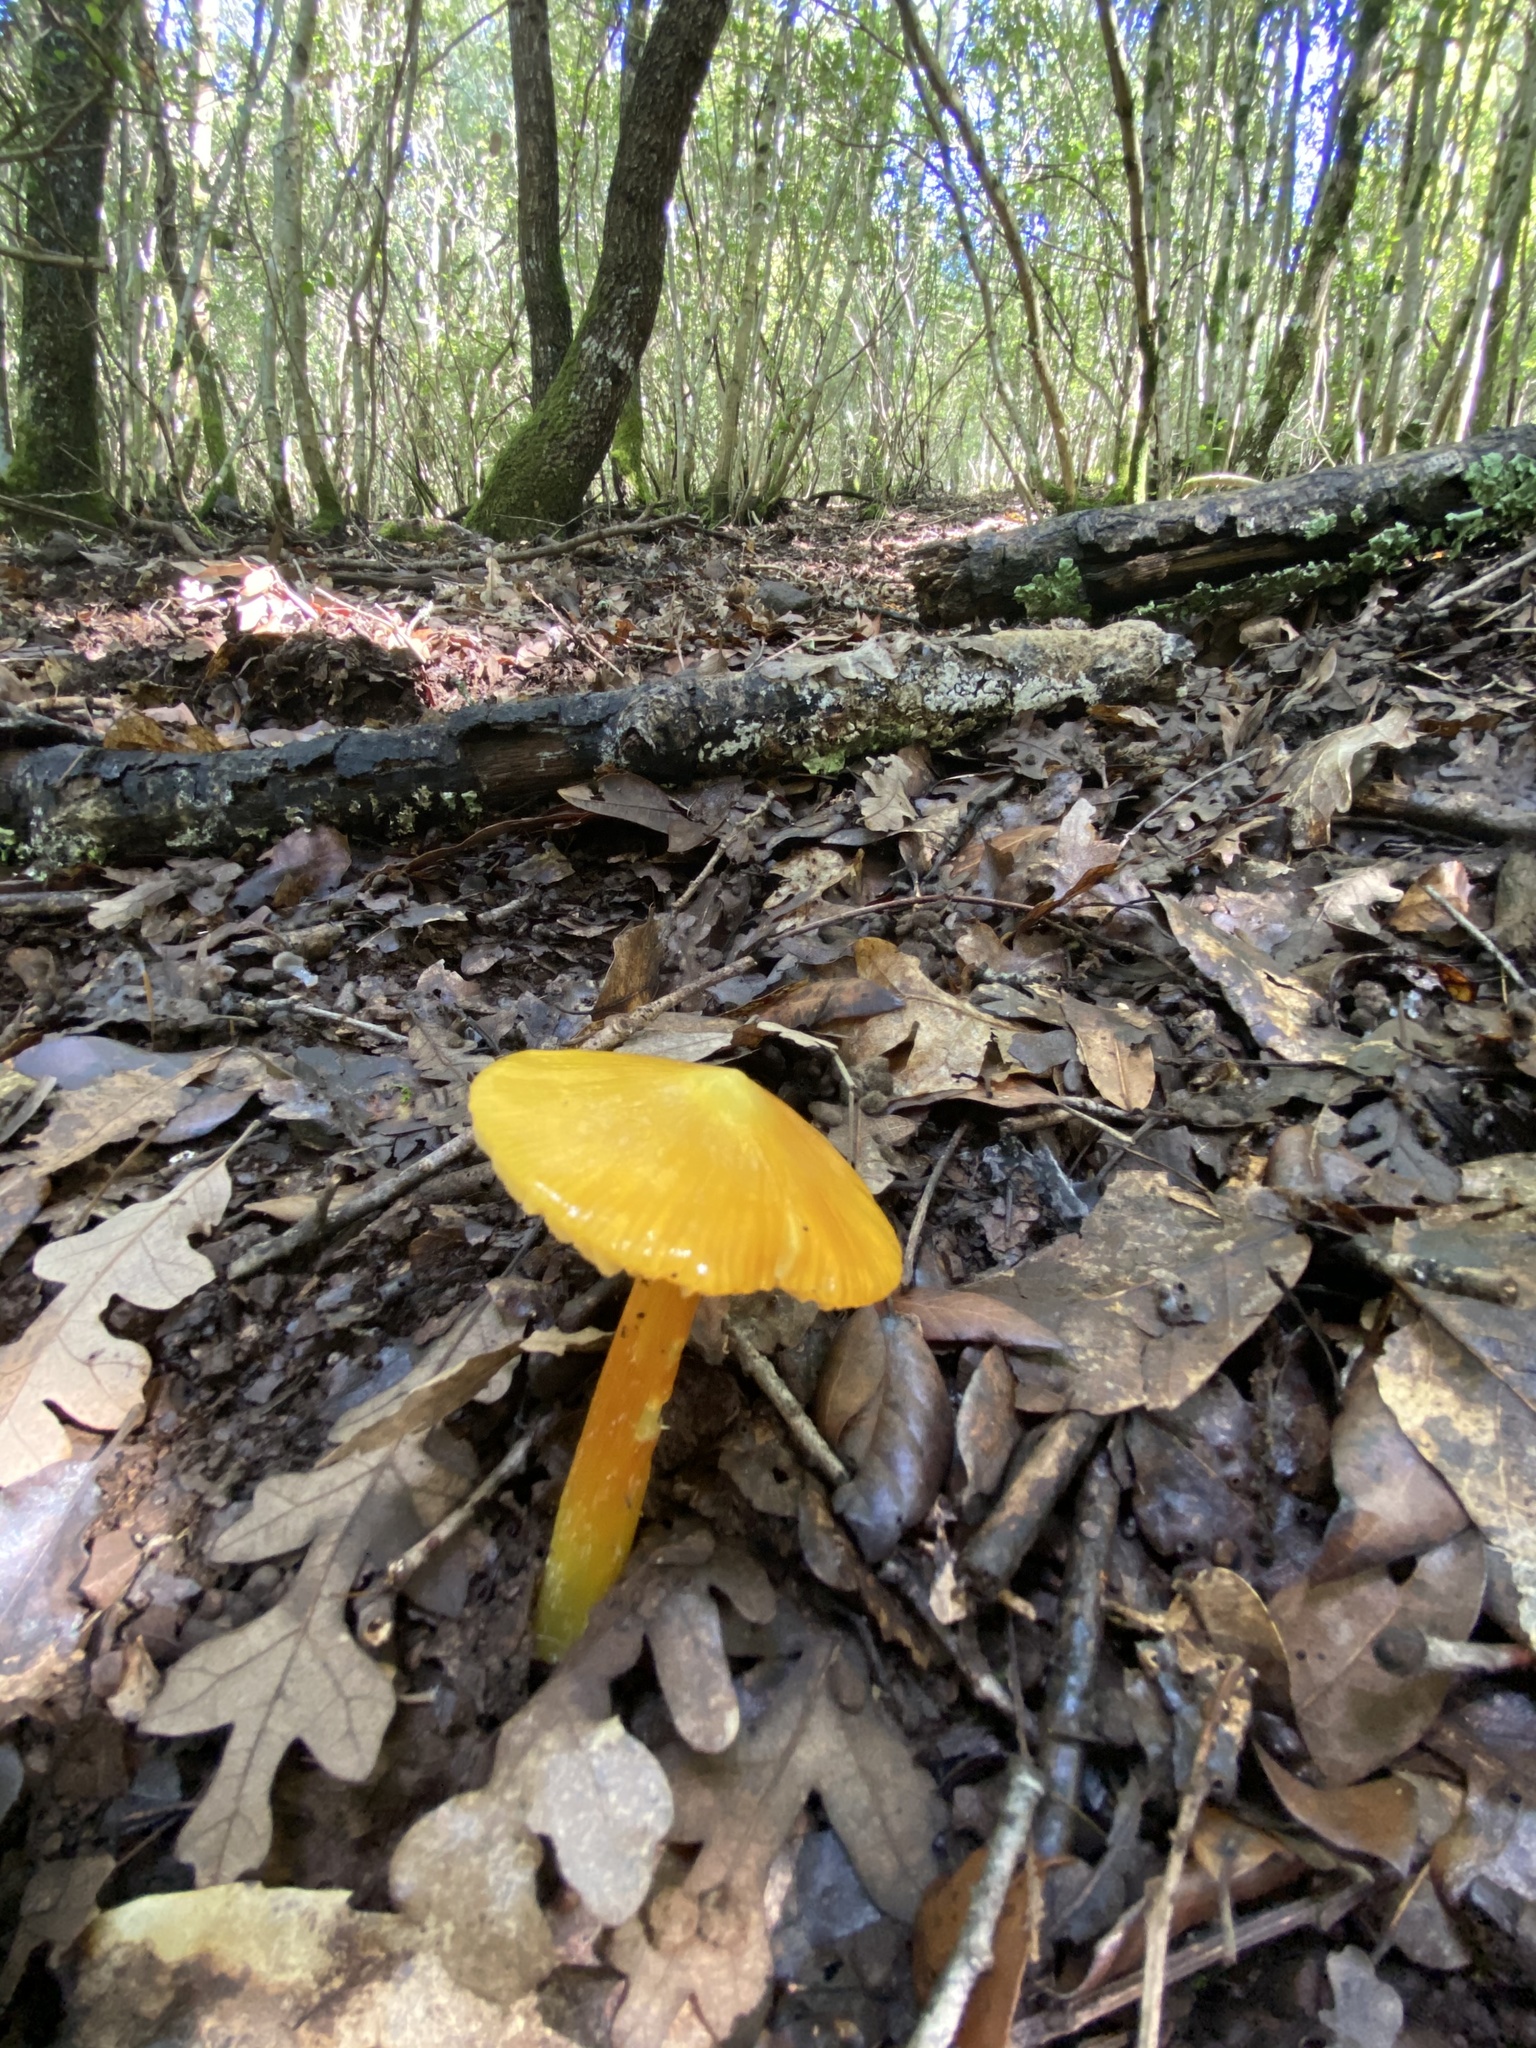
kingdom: Fungi
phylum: Basidiomycota
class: Agaricomycetes
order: Agaricales
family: Hygrophoraceae
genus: Hygrocybe
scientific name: Hygrocybe conica
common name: Blackening wax-cap
